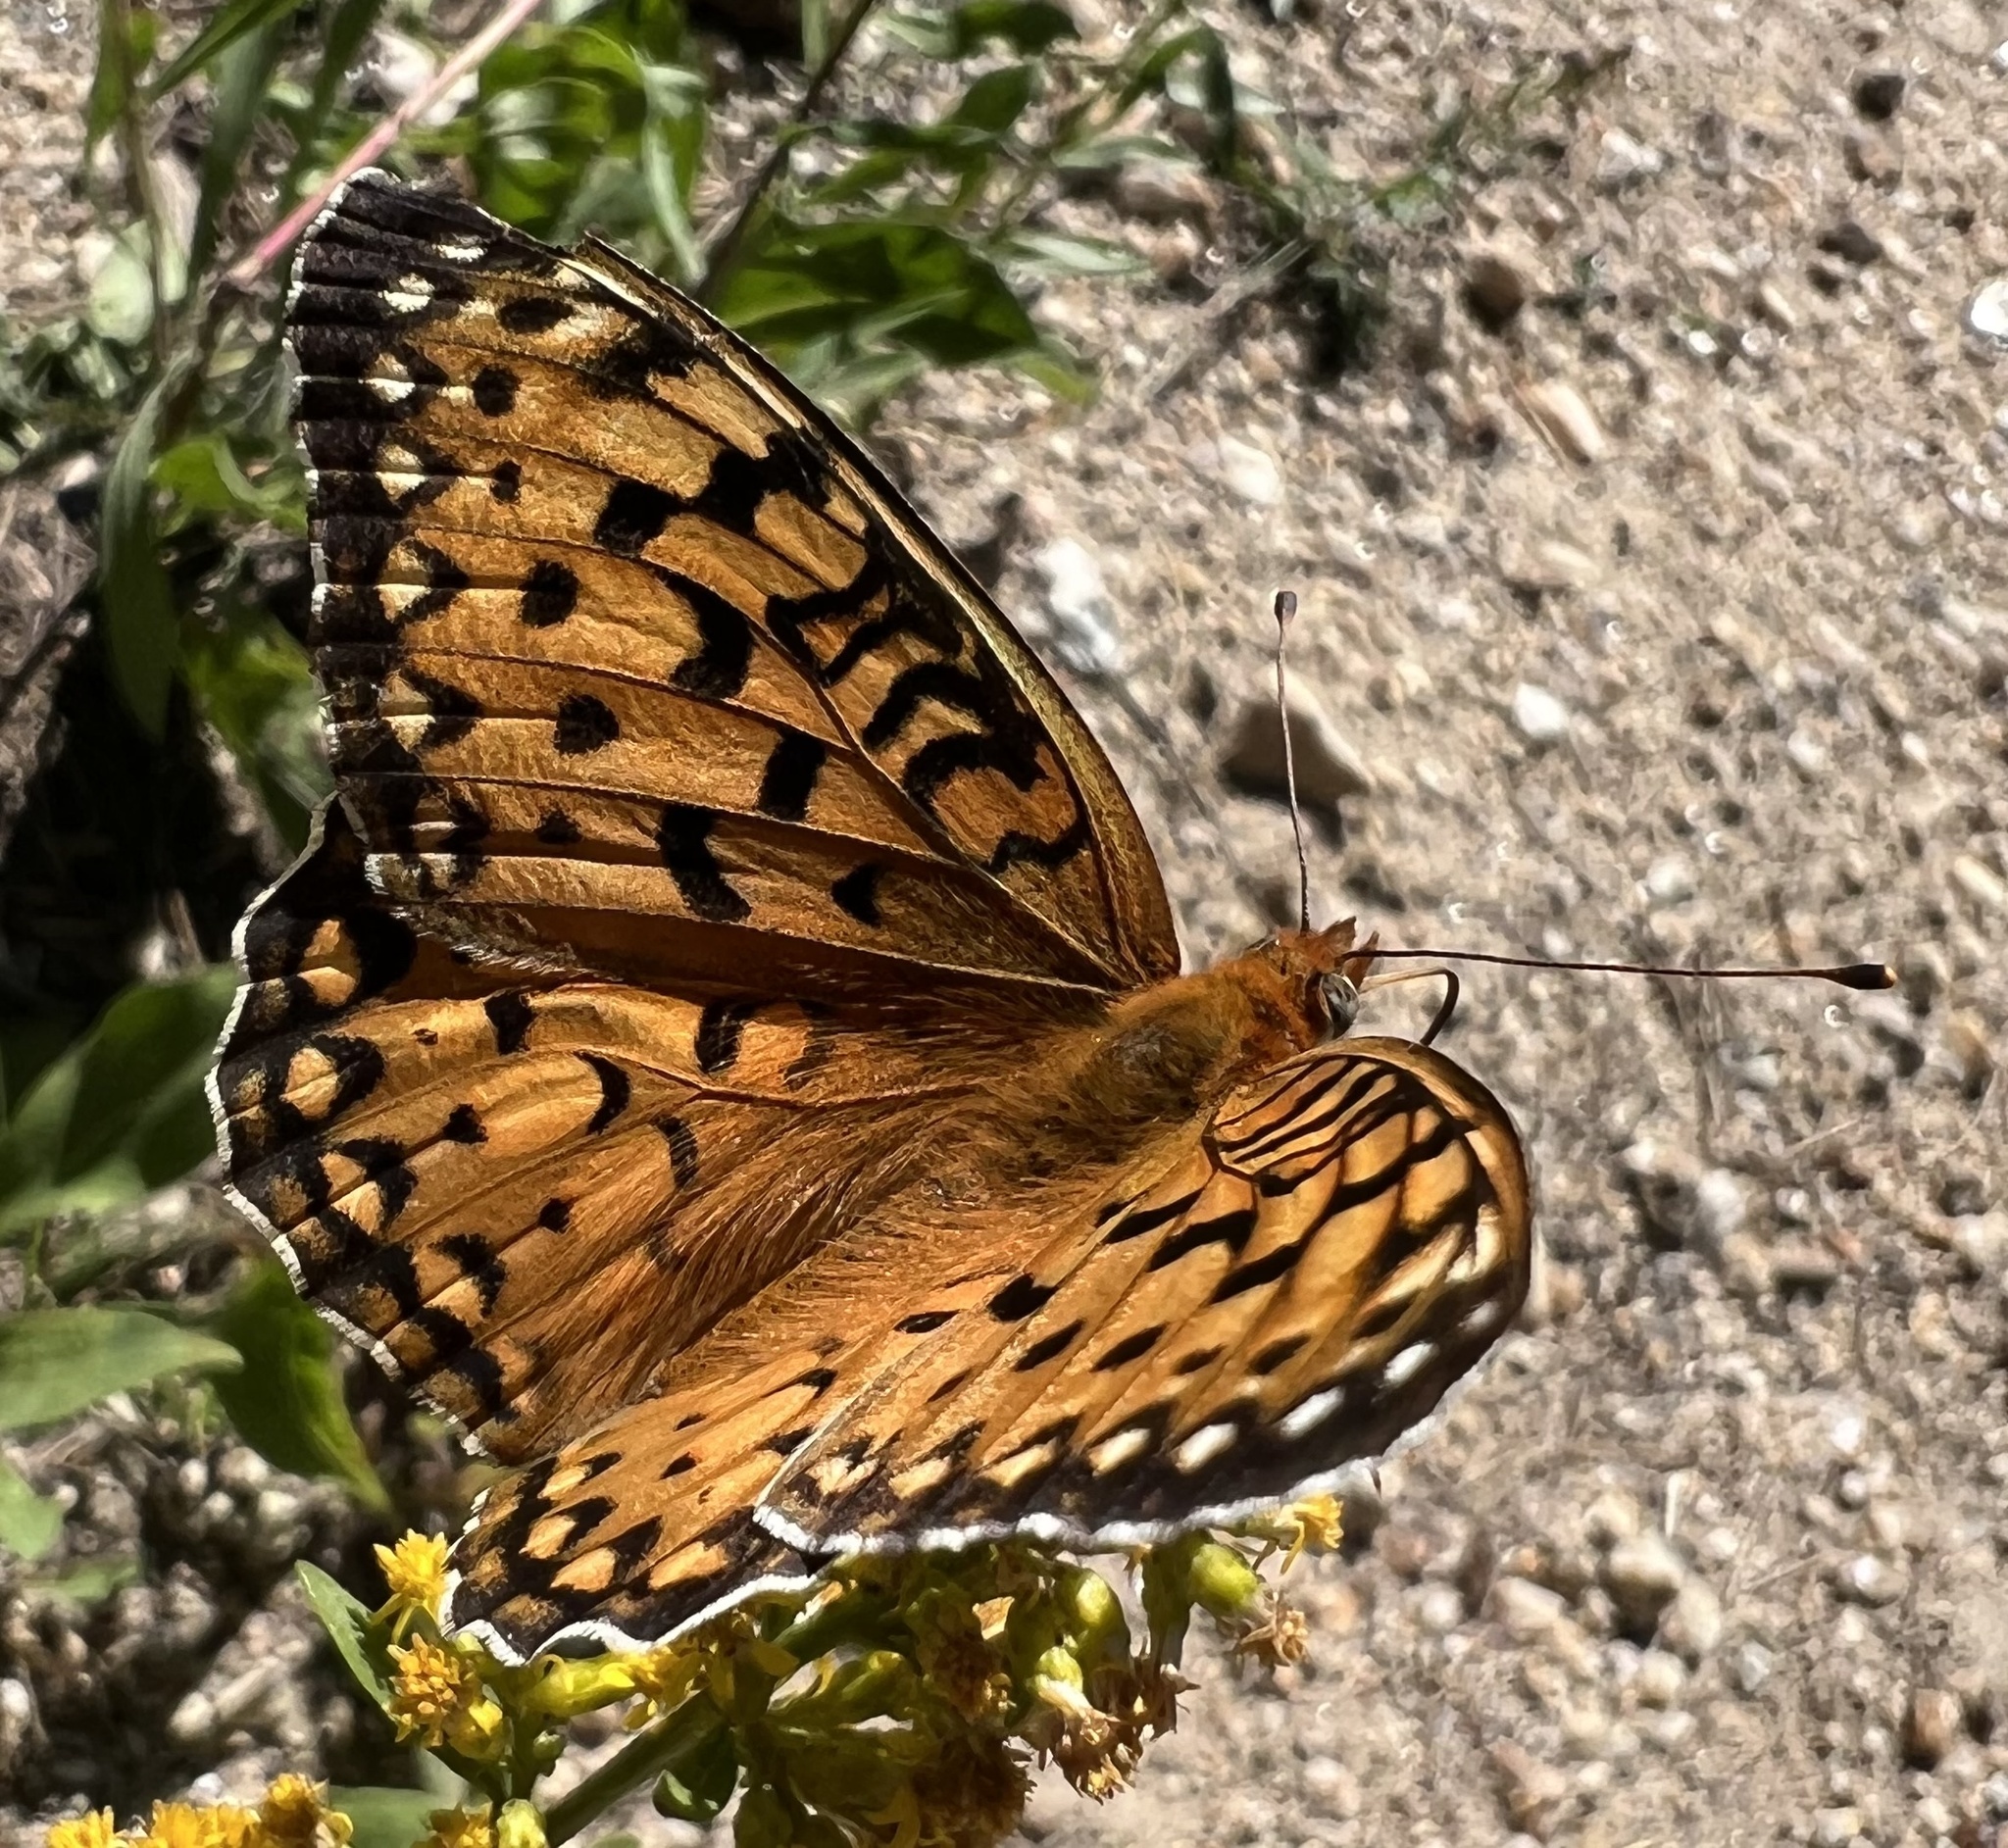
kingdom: Animalia
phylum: Arthropoda
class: Insecta
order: Lepidoptera
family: Nymphalidae
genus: Speyeria
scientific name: Speyeria edwardsii
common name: Edwards' fritillary
